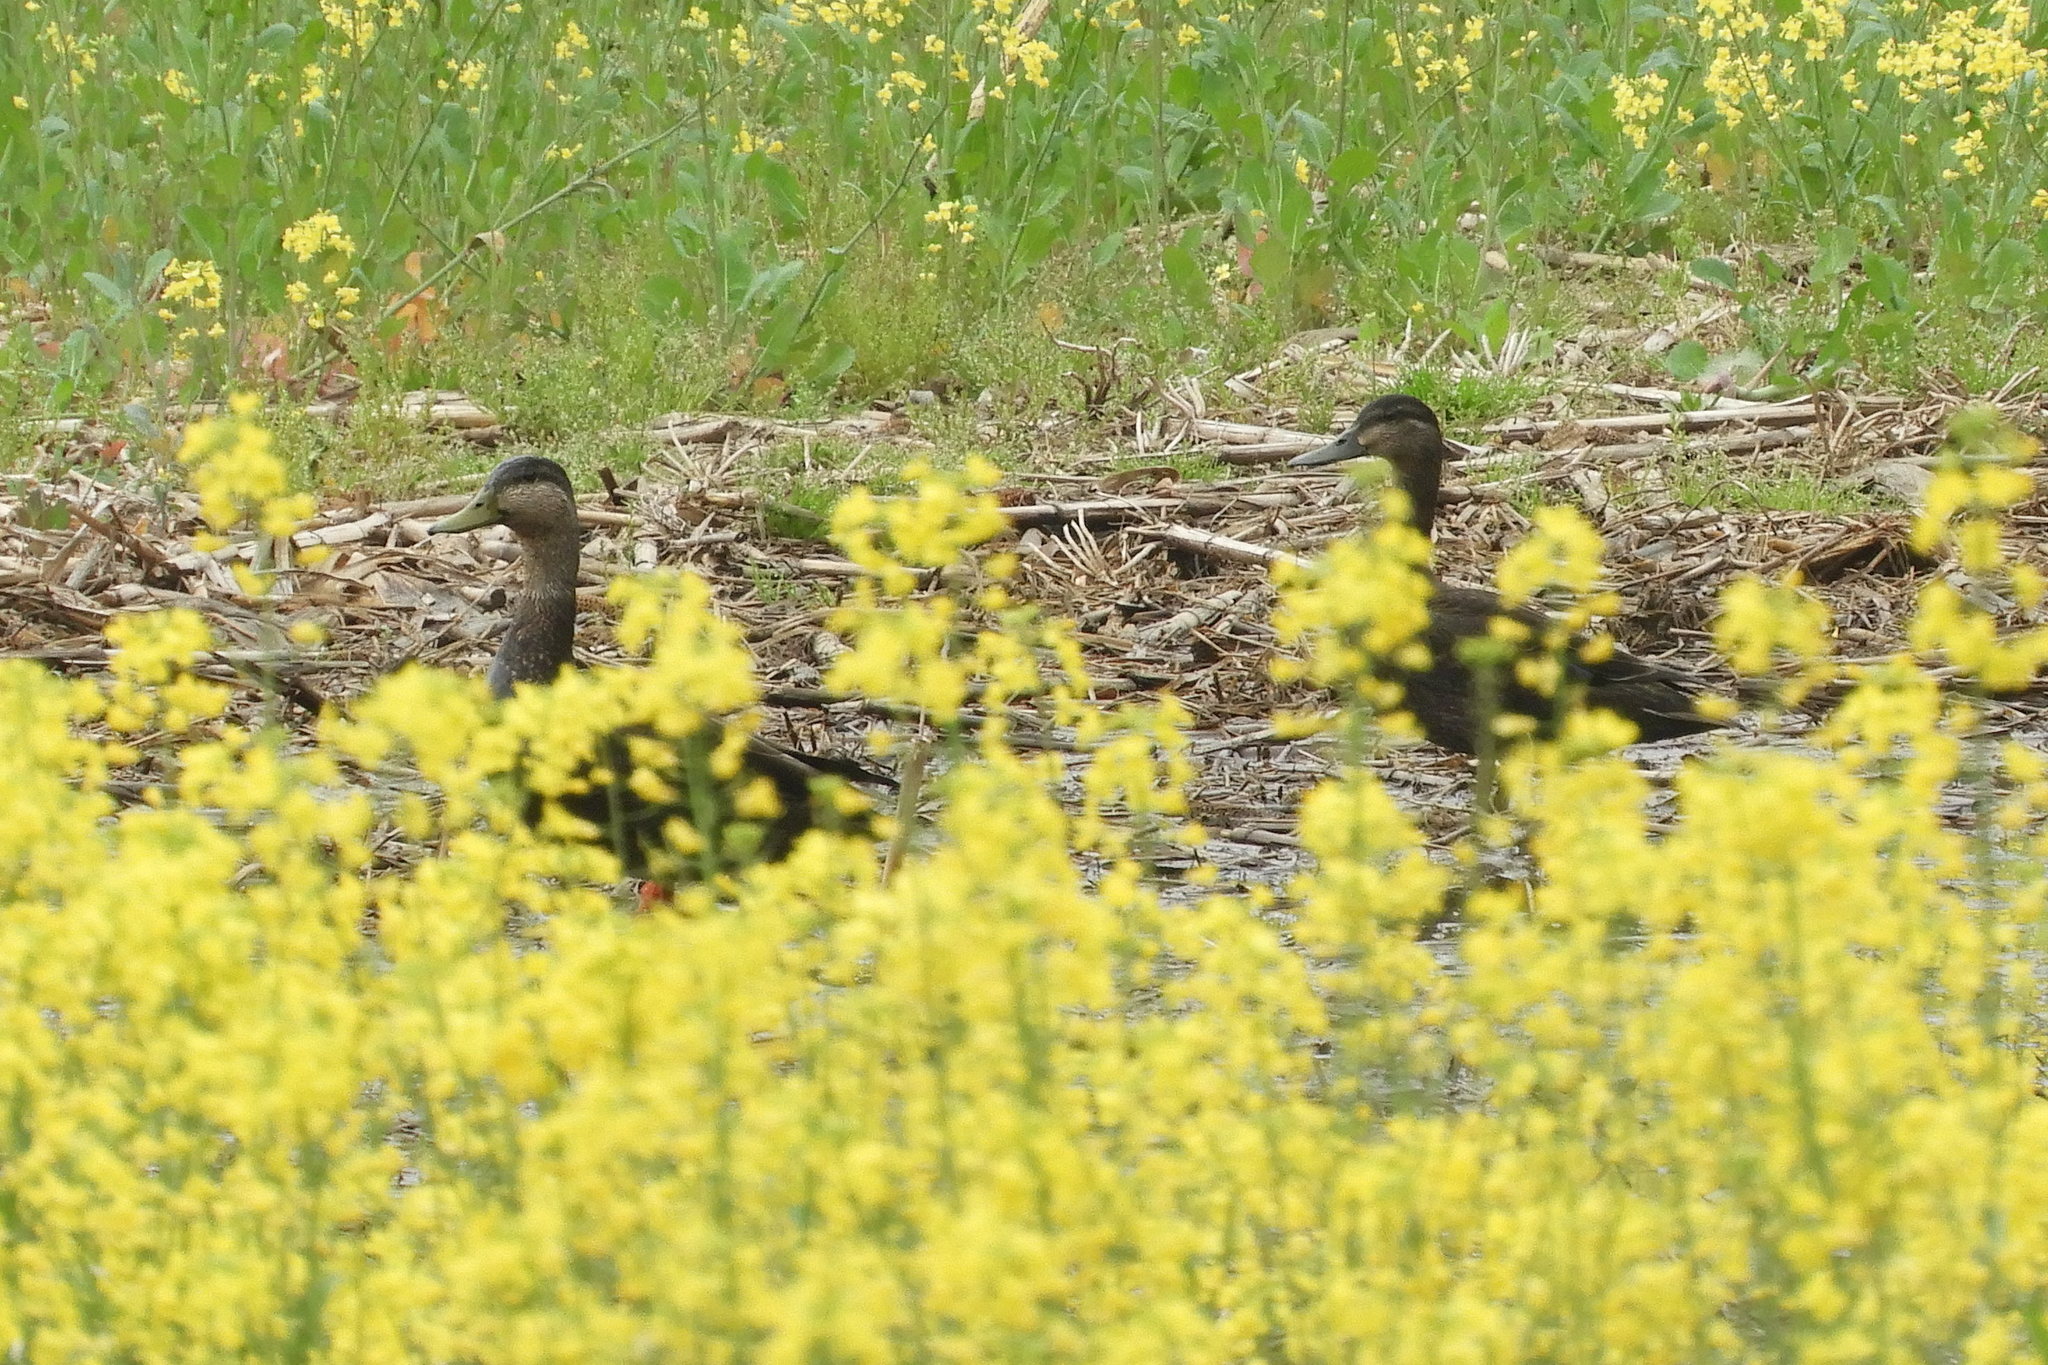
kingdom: Animalia
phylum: Chordata
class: Aves
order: Anseriformes
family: Anatidae
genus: Anas
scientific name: Anas rubripes
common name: American black duck
